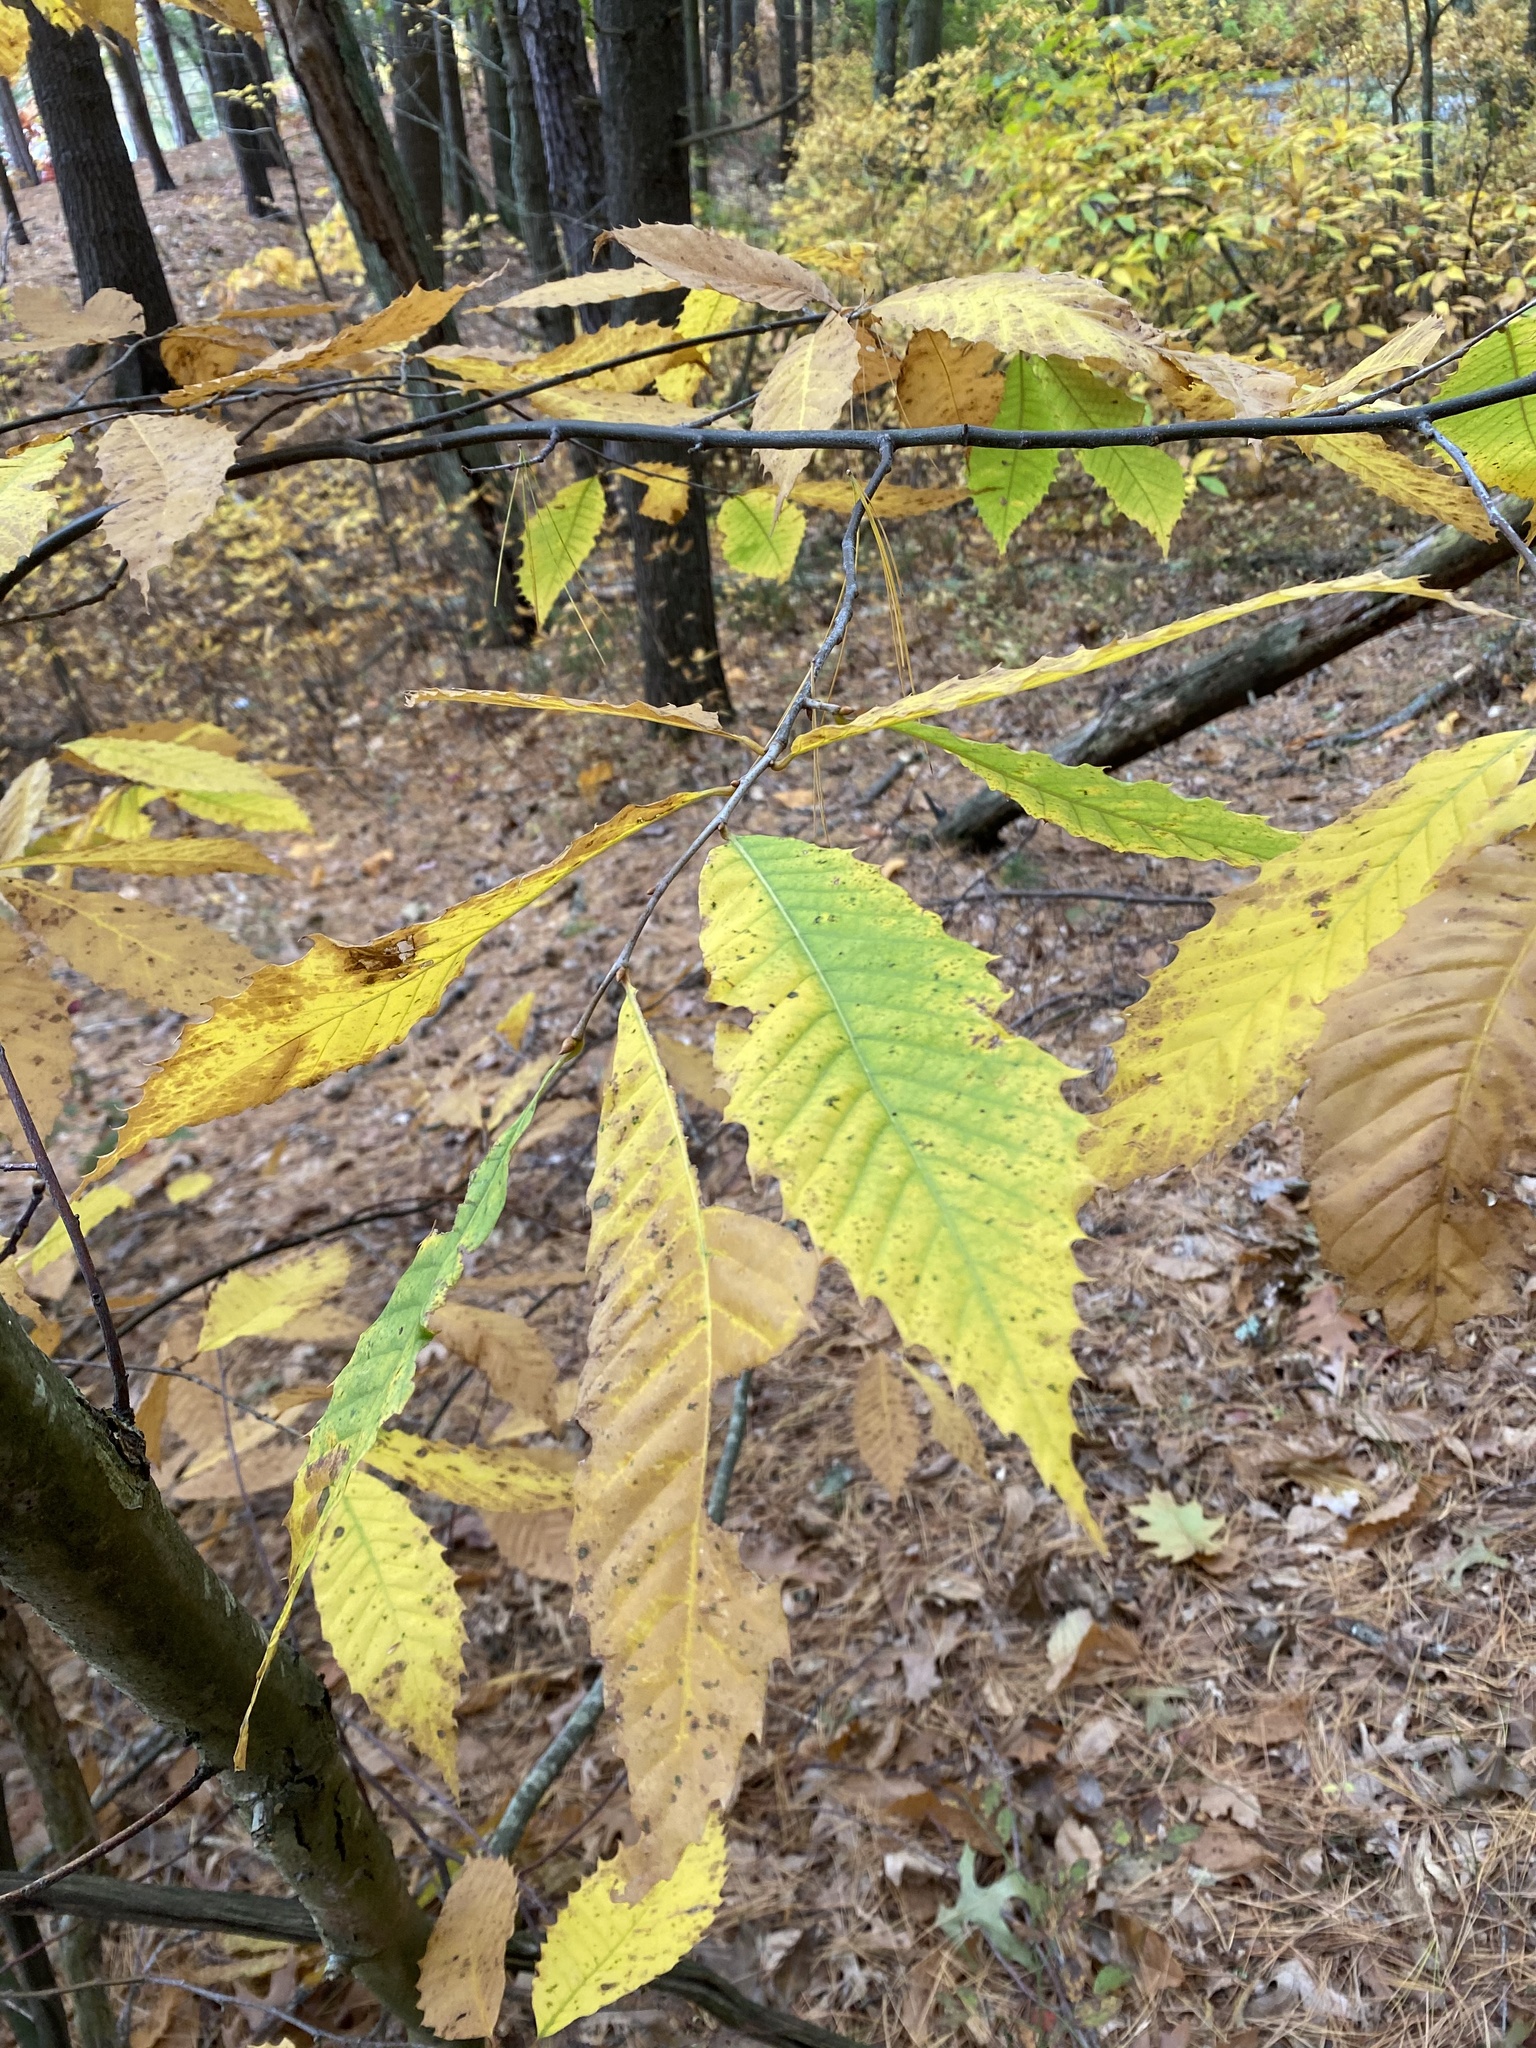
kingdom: Plantae
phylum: Tracheophyta
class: Magnoliopsida
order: Fagales
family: Fagaceae
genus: Castanea
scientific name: Castanea dentata
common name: American chestnut
